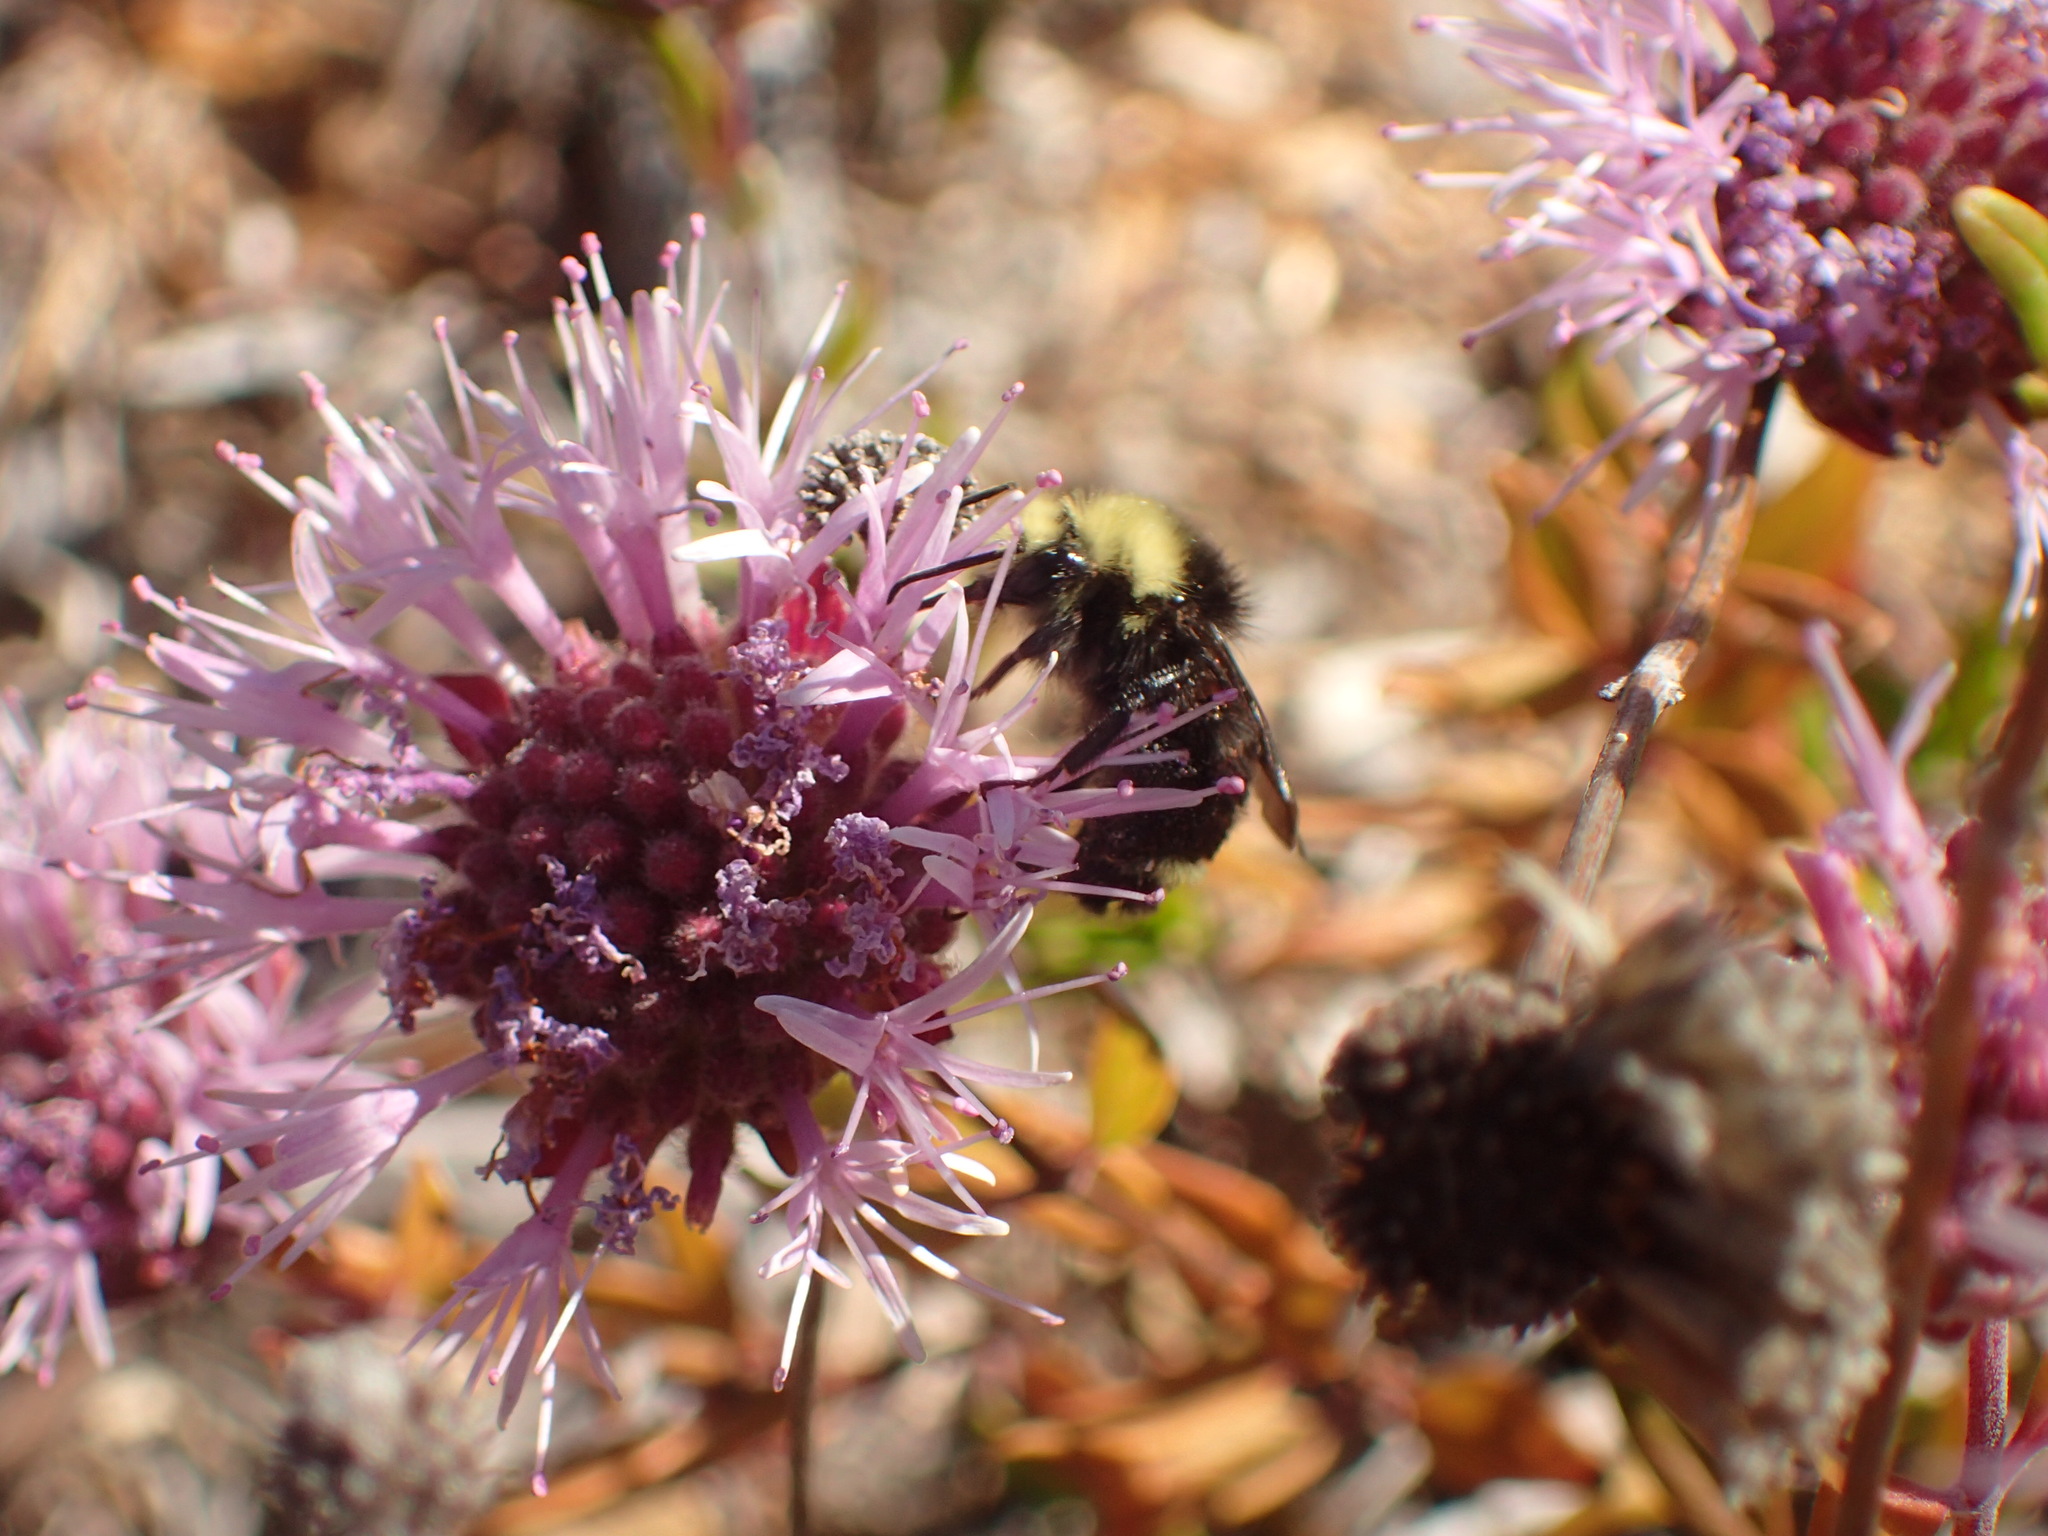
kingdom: Animalia
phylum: Arthropoda
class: Insecta
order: Hymenoptera
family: Apidae
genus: Bombus
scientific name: Bombus vosnesenskii
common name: Vosnesensky bumble bee
